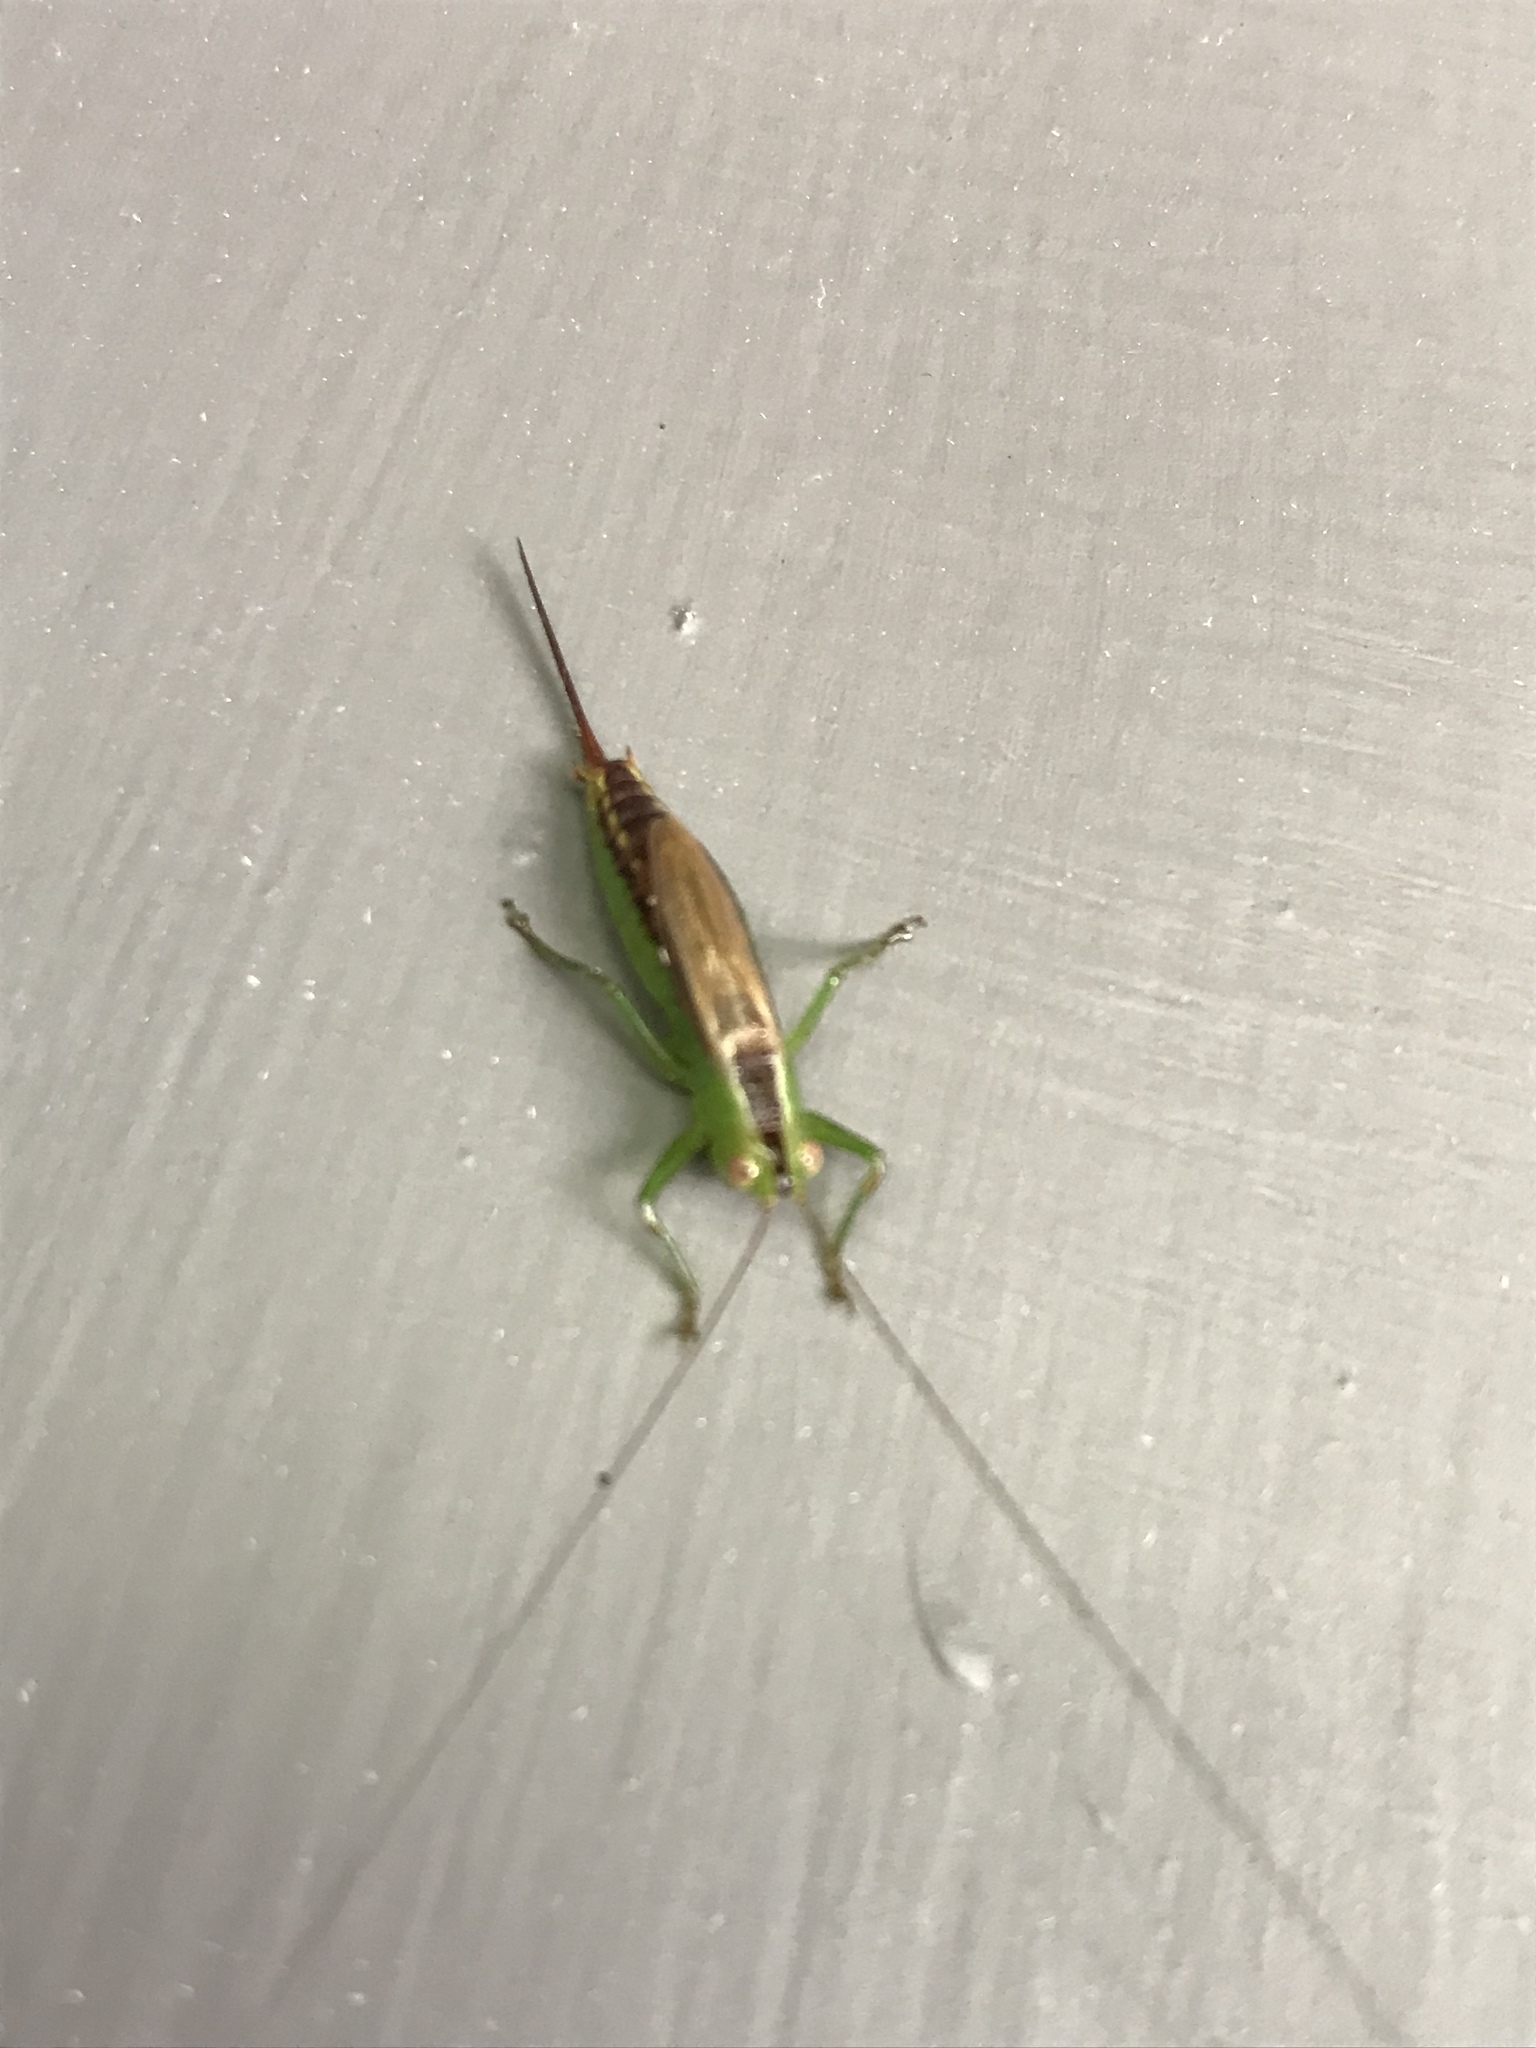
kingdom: Animalia
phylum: Arthropoda
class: Insecta
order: Orthoptera
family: Tettigoniidae
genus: Conocephalus
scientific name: Conocephalus brevipennis
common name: Short-winged meadow katydid
